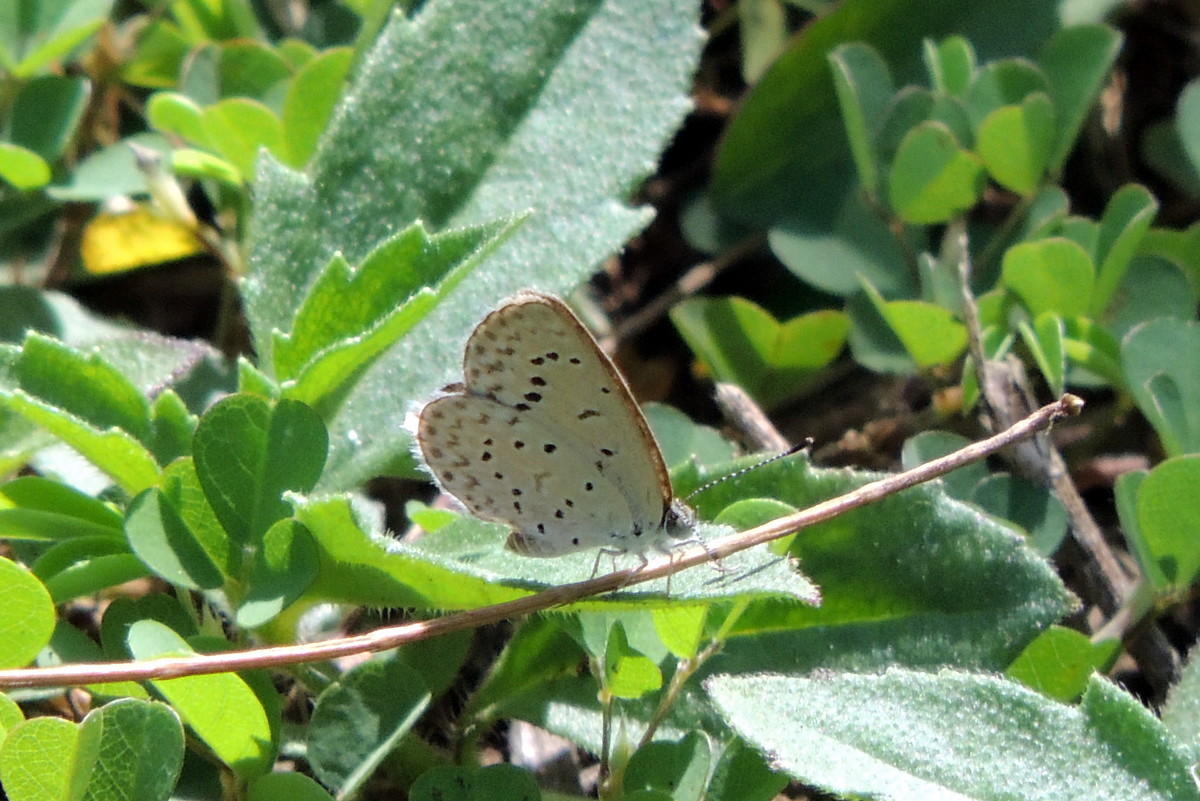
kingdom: Animalia
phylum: Arthropoda
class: Insecta
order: Lepidoptera
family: Lycaenidae
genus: Zizeeria
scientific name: Zizeeria knysna
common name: African grass blue
